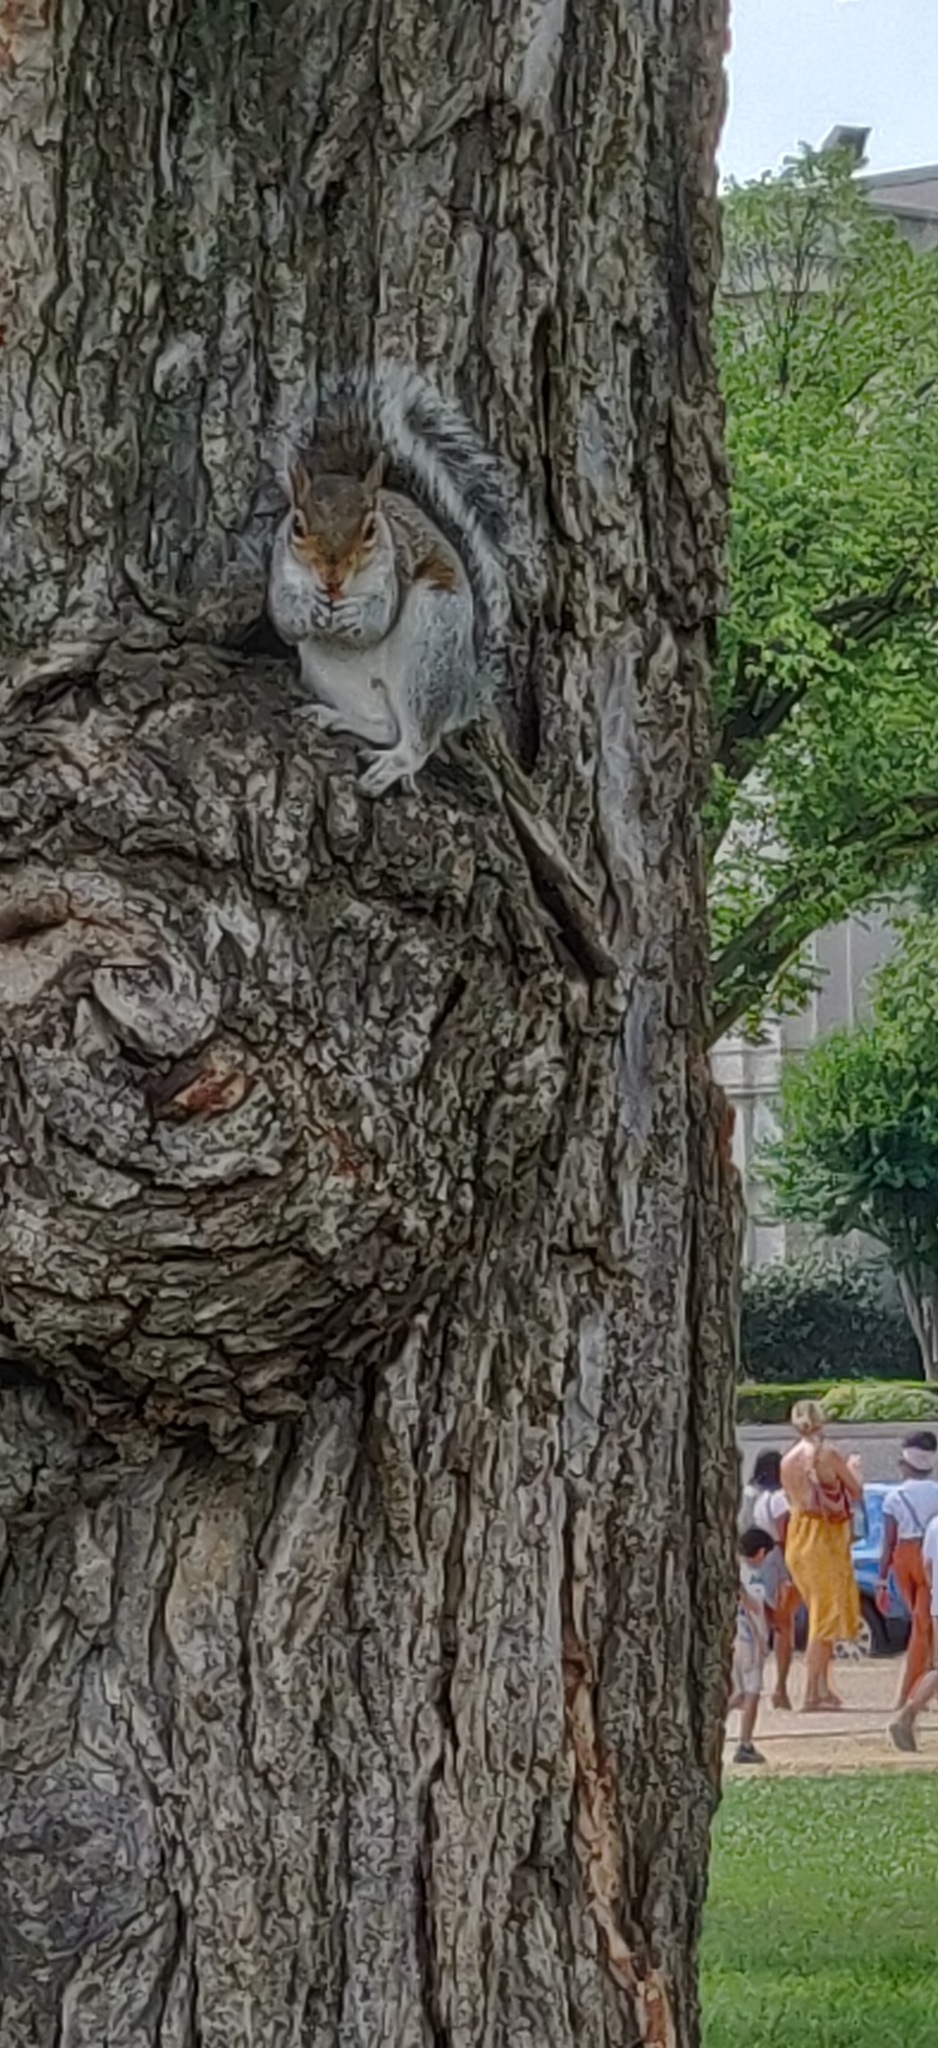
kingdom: Animalia
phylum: Chordata
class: Mammalia
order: Rodentia
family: Sciuridae
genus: Sciurus
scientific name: Sciurus carolinensis
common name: Eastern gray squirrel
